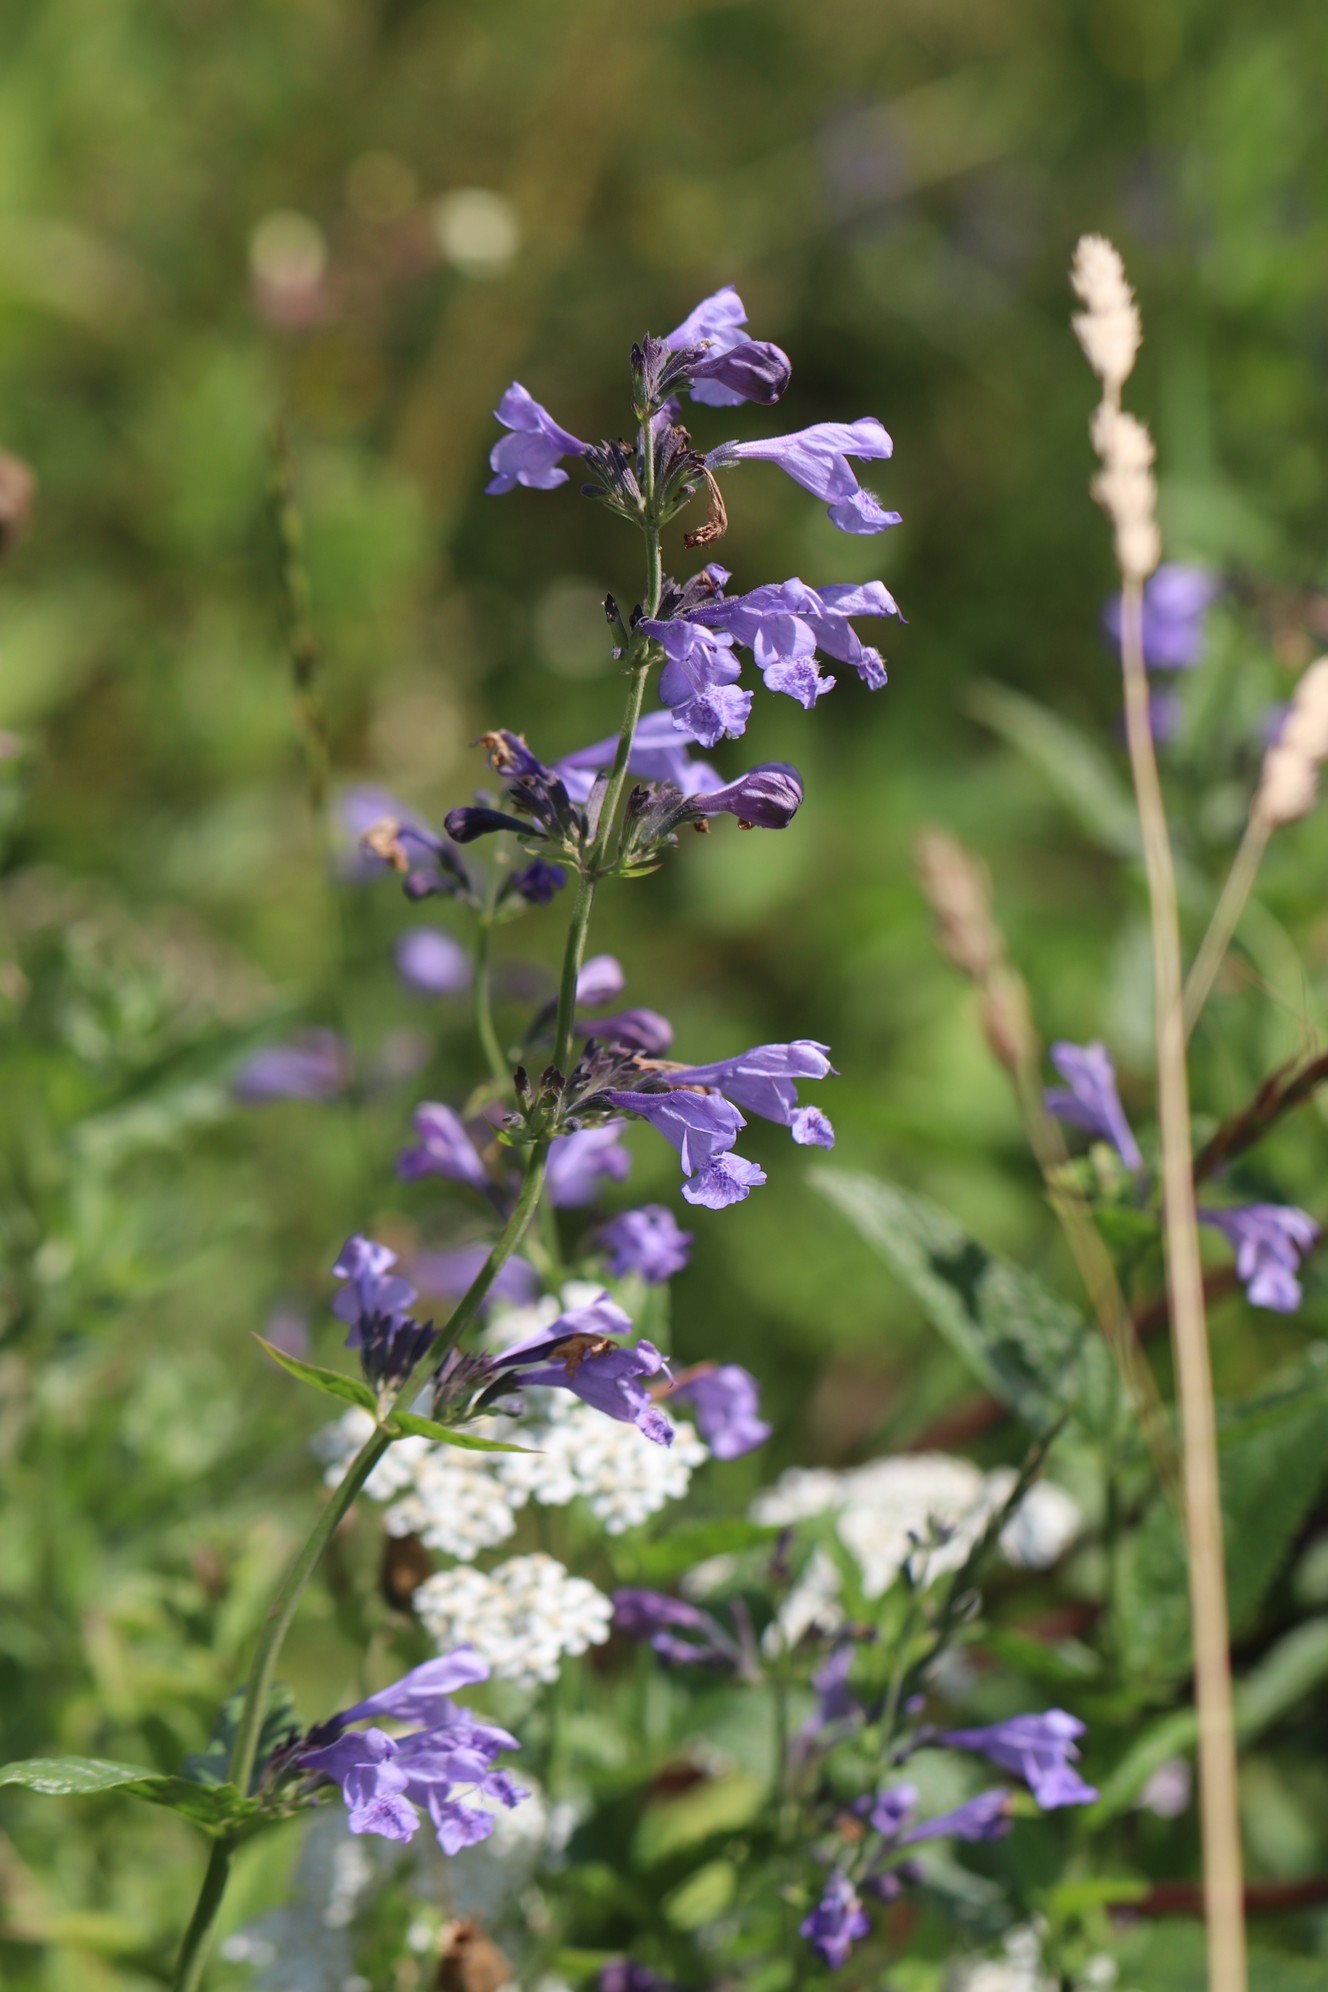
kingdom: Plantae
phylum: Tracheophyta
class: Magnoliopsida
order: Lamiales
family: Lamiaceae
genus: Nepeta
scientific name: Nepeta sibirica
